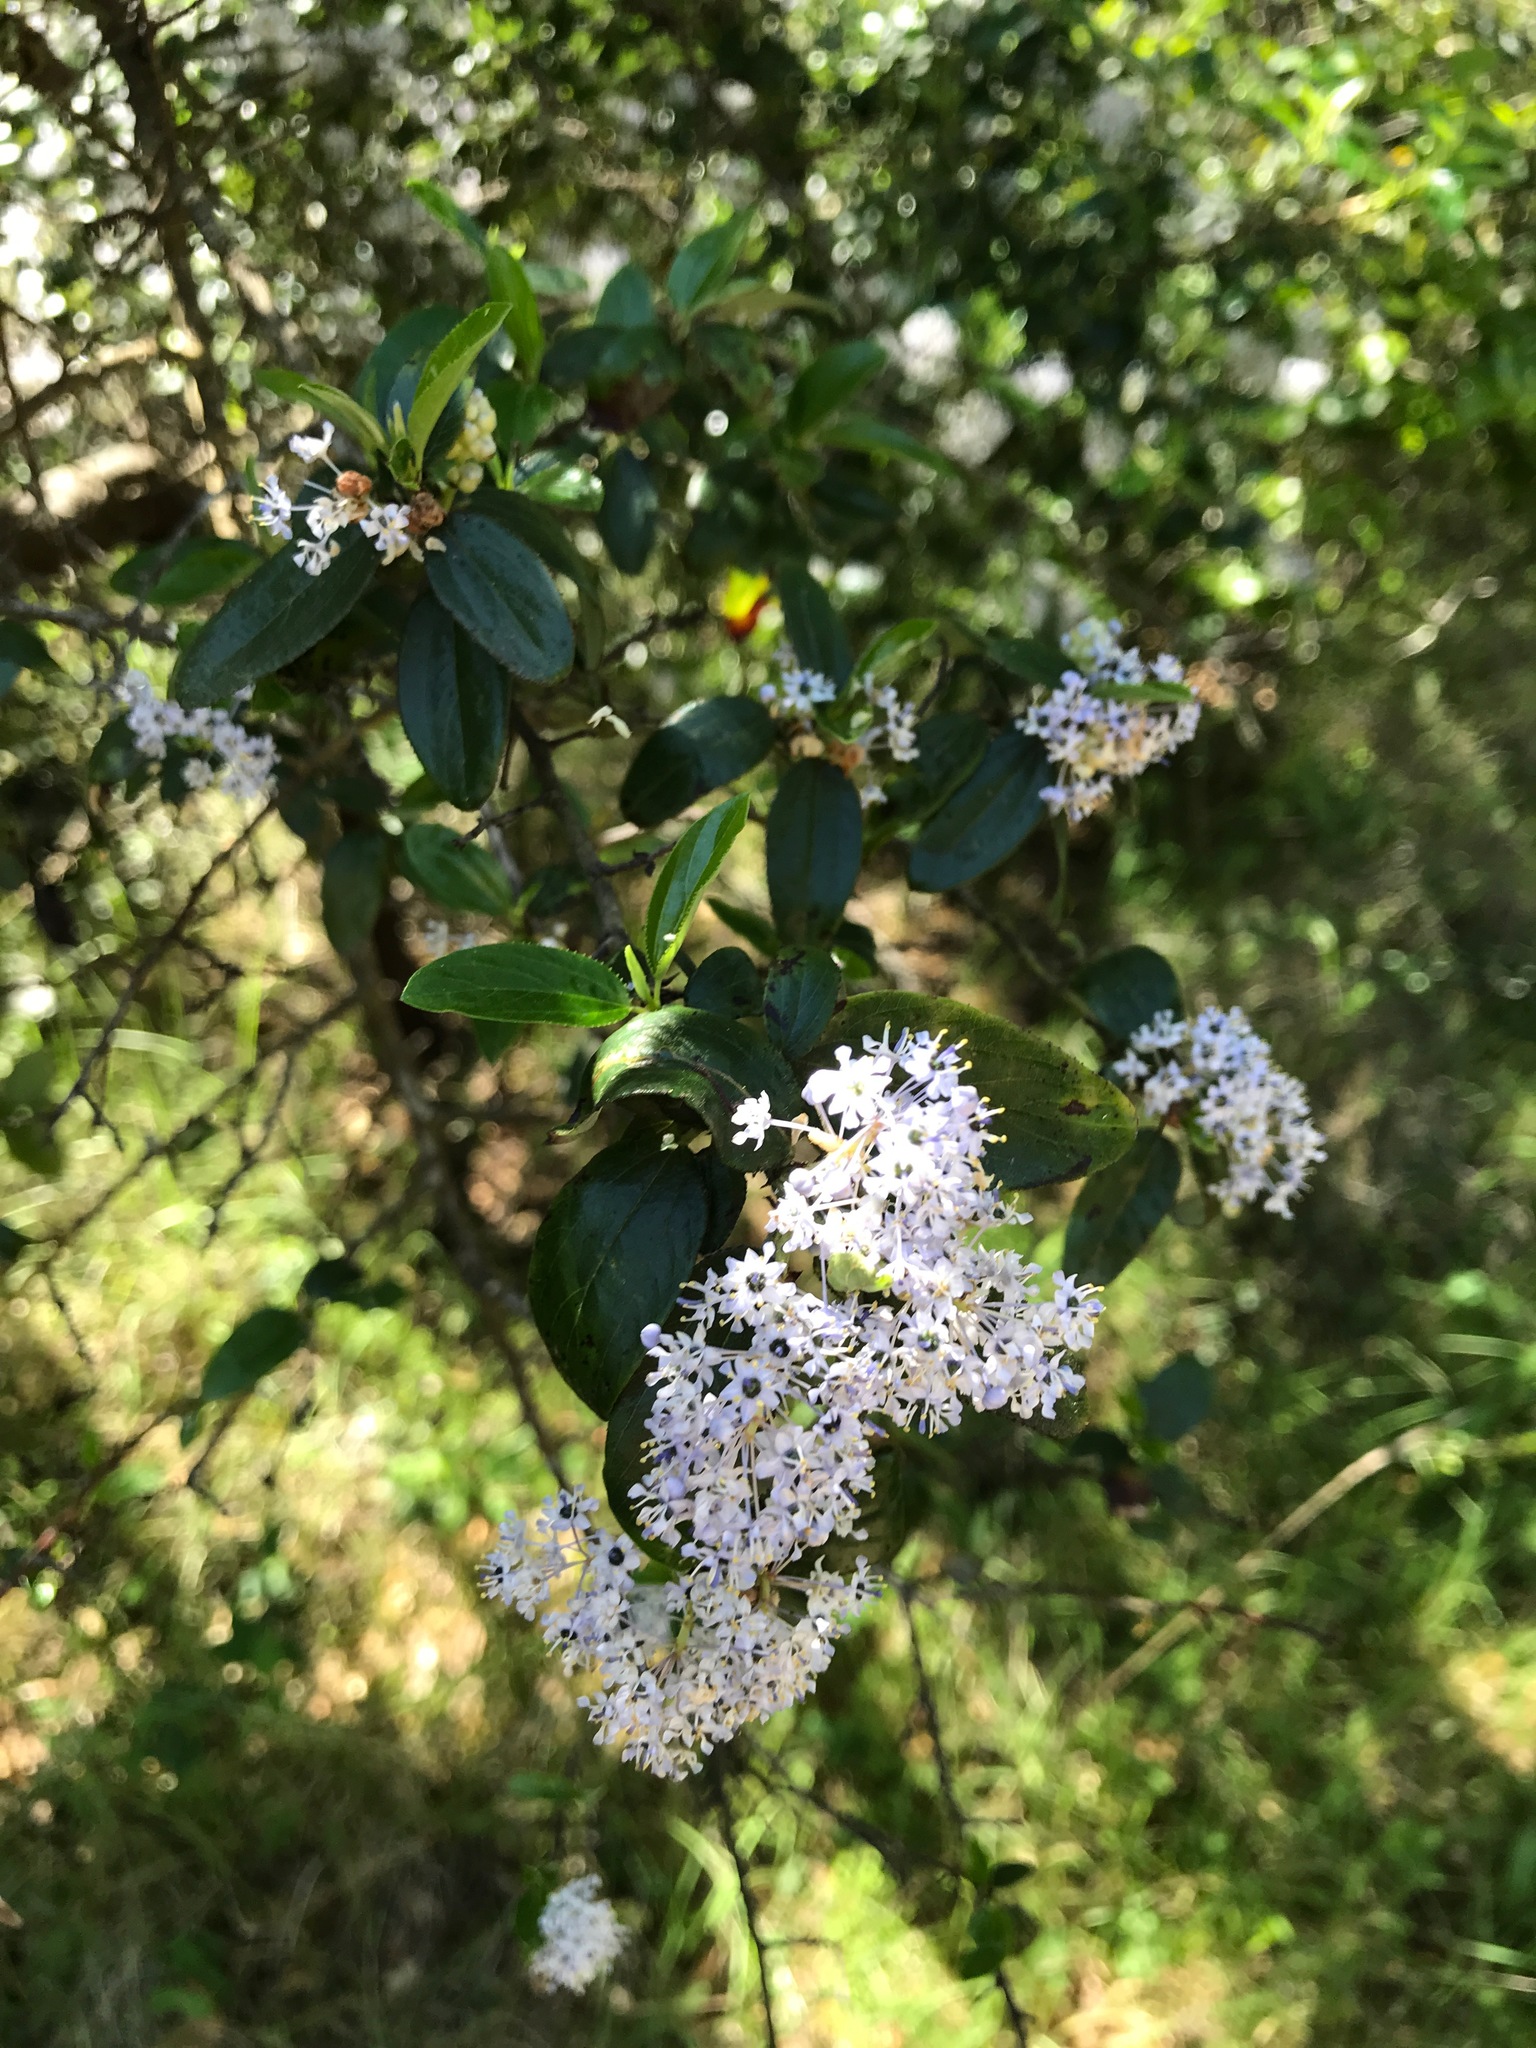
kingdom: Plantae
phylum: Tracheophyta
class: Magnoliopsida
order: Rosales
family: Rhamnaceae
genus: Ceanothus
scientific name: Ceanothus cuneatus
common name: Cuneate ceanothus
